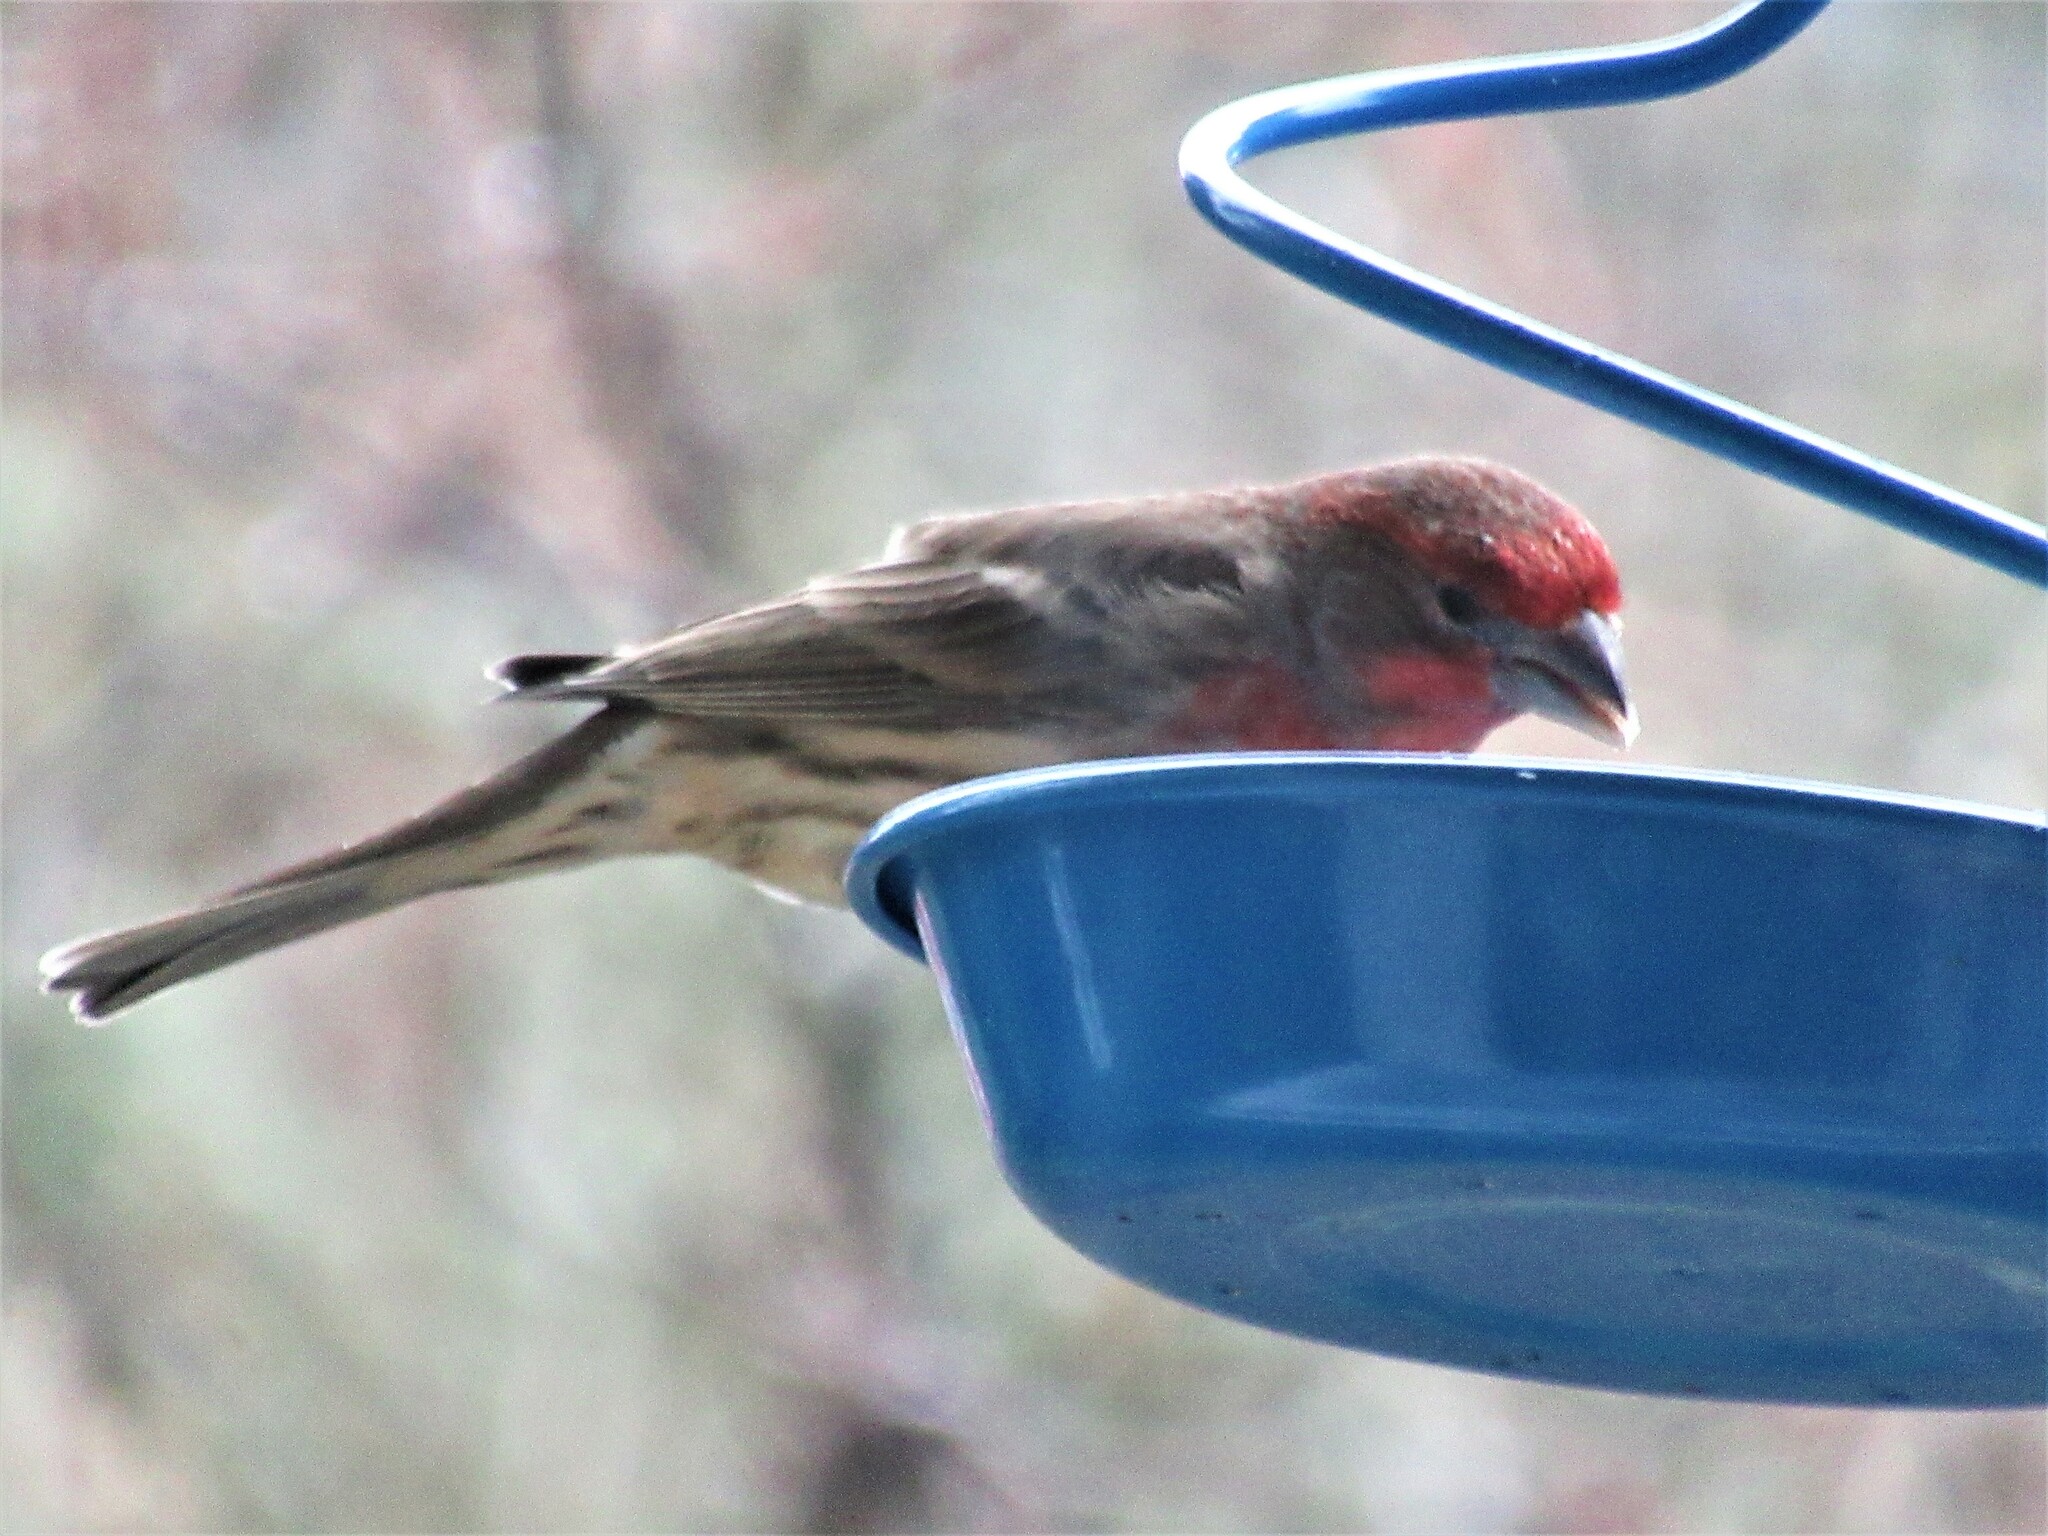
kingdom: Animalia
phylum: Chordata
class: Aves
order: Passeriformes
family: Fringillidae
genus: Haemorhous
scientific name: Haemorhous mexicanus
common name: House finch
